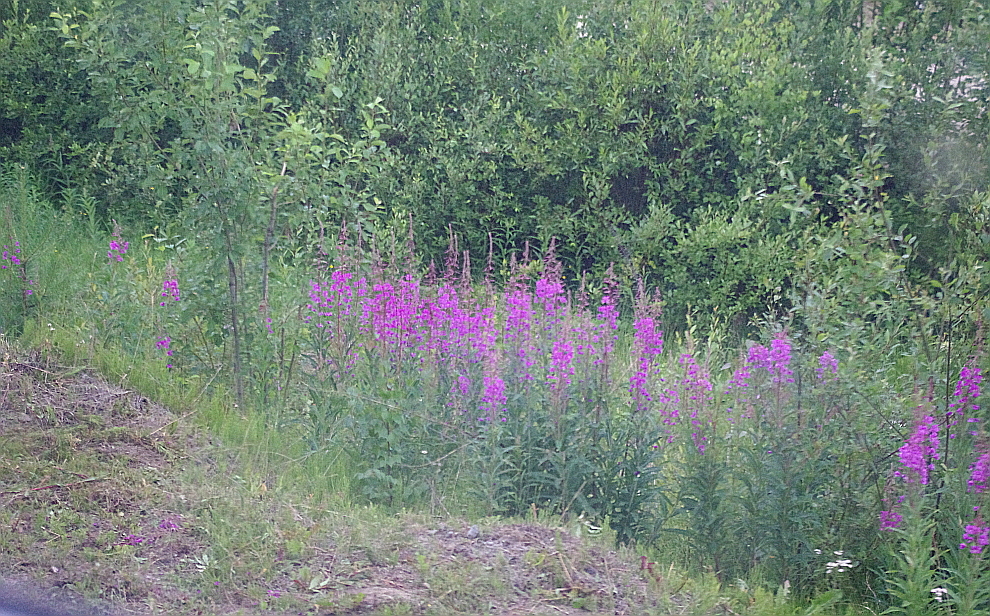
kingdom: Plantae
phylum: Tracheophyta
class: Magnoliopsida
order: Myrtales
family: Onagraceae
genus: Chamaenerion
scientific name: Chamaenerion angustifolium
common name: Fireweed
